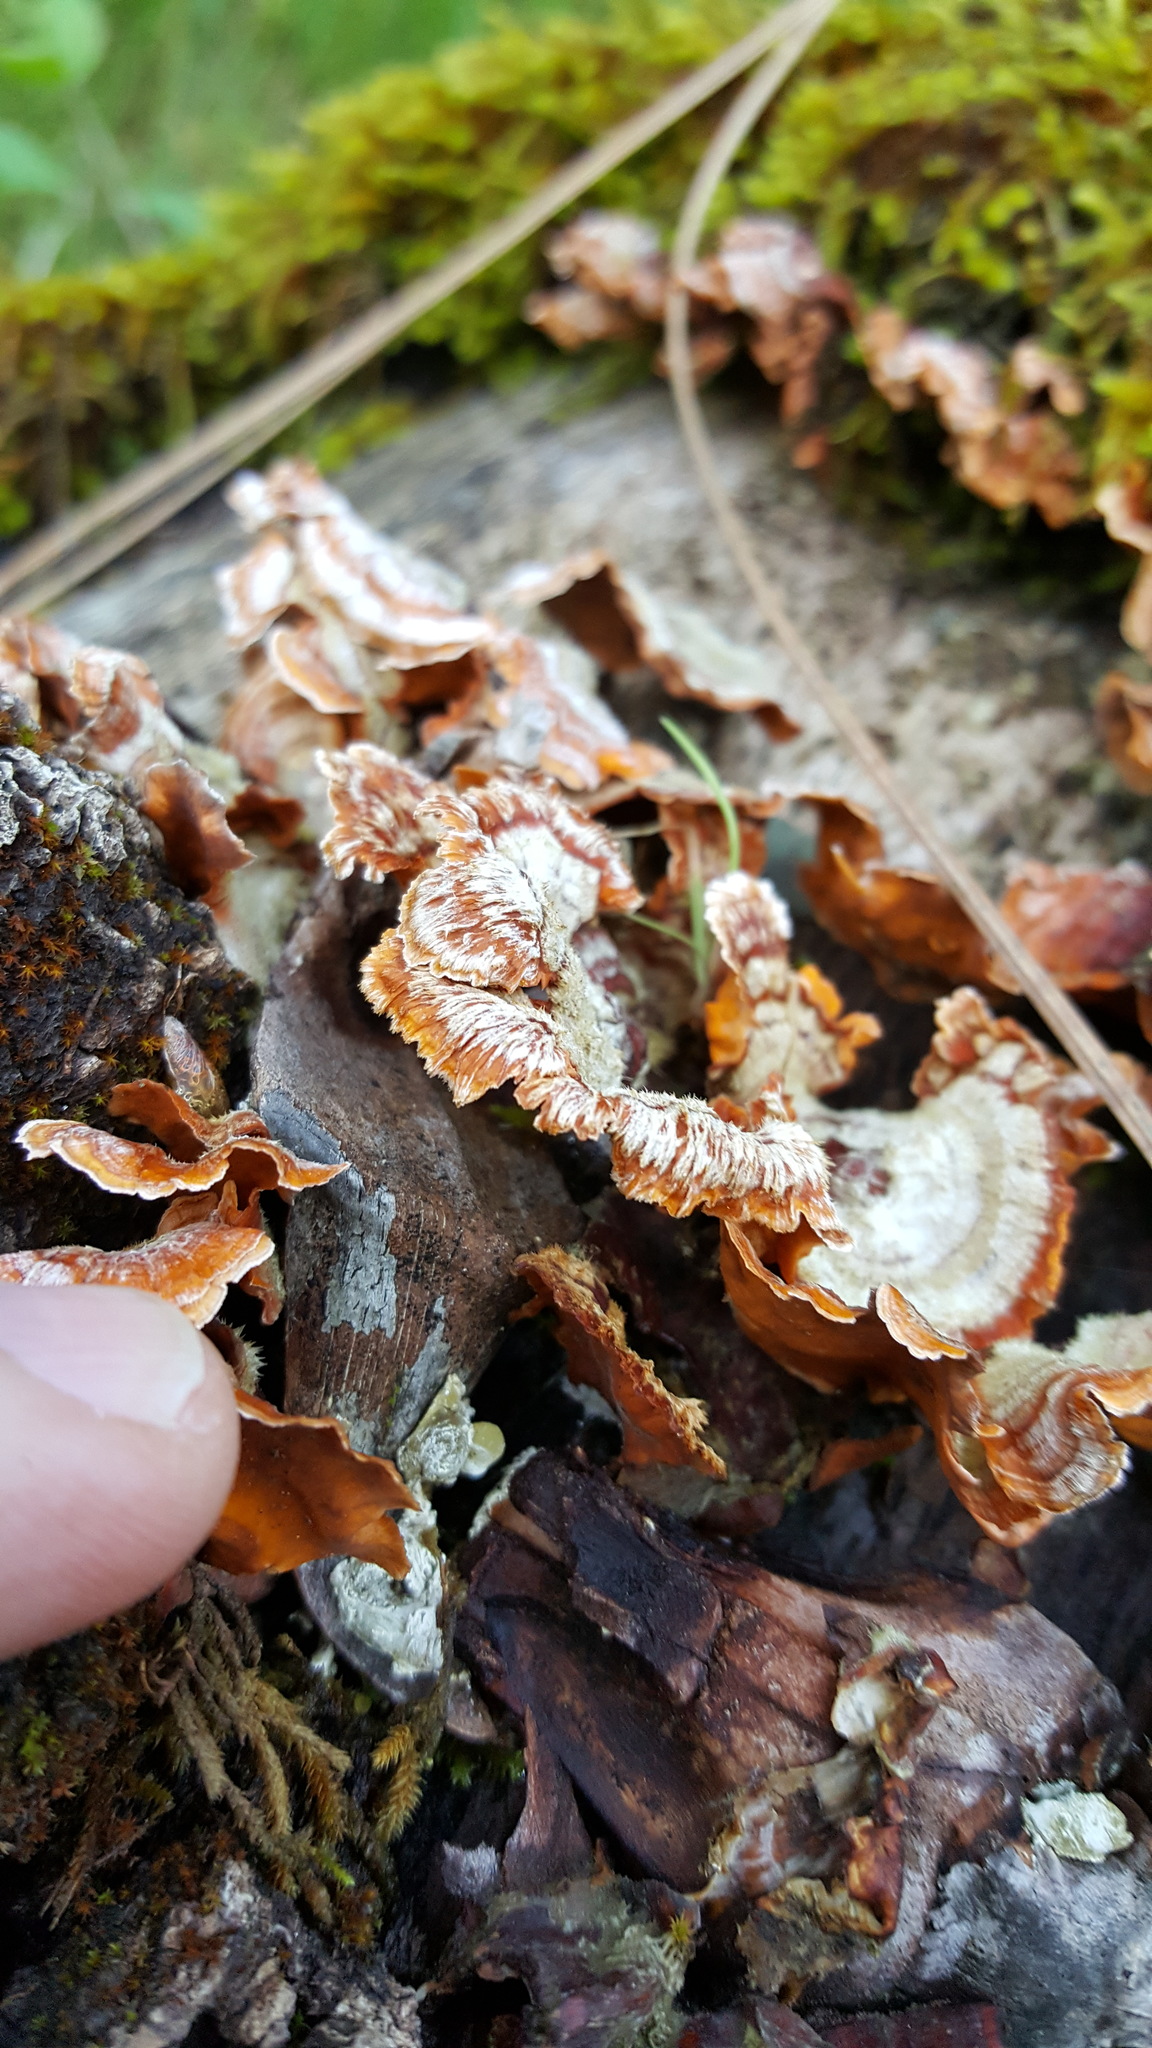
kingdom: Fungi
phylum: Basidiomycota
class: Agaricomycetes
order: Russulales
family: Stereaceae
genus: Stereum
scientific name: Stereum hirsutum
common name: Hairy curtain crust
